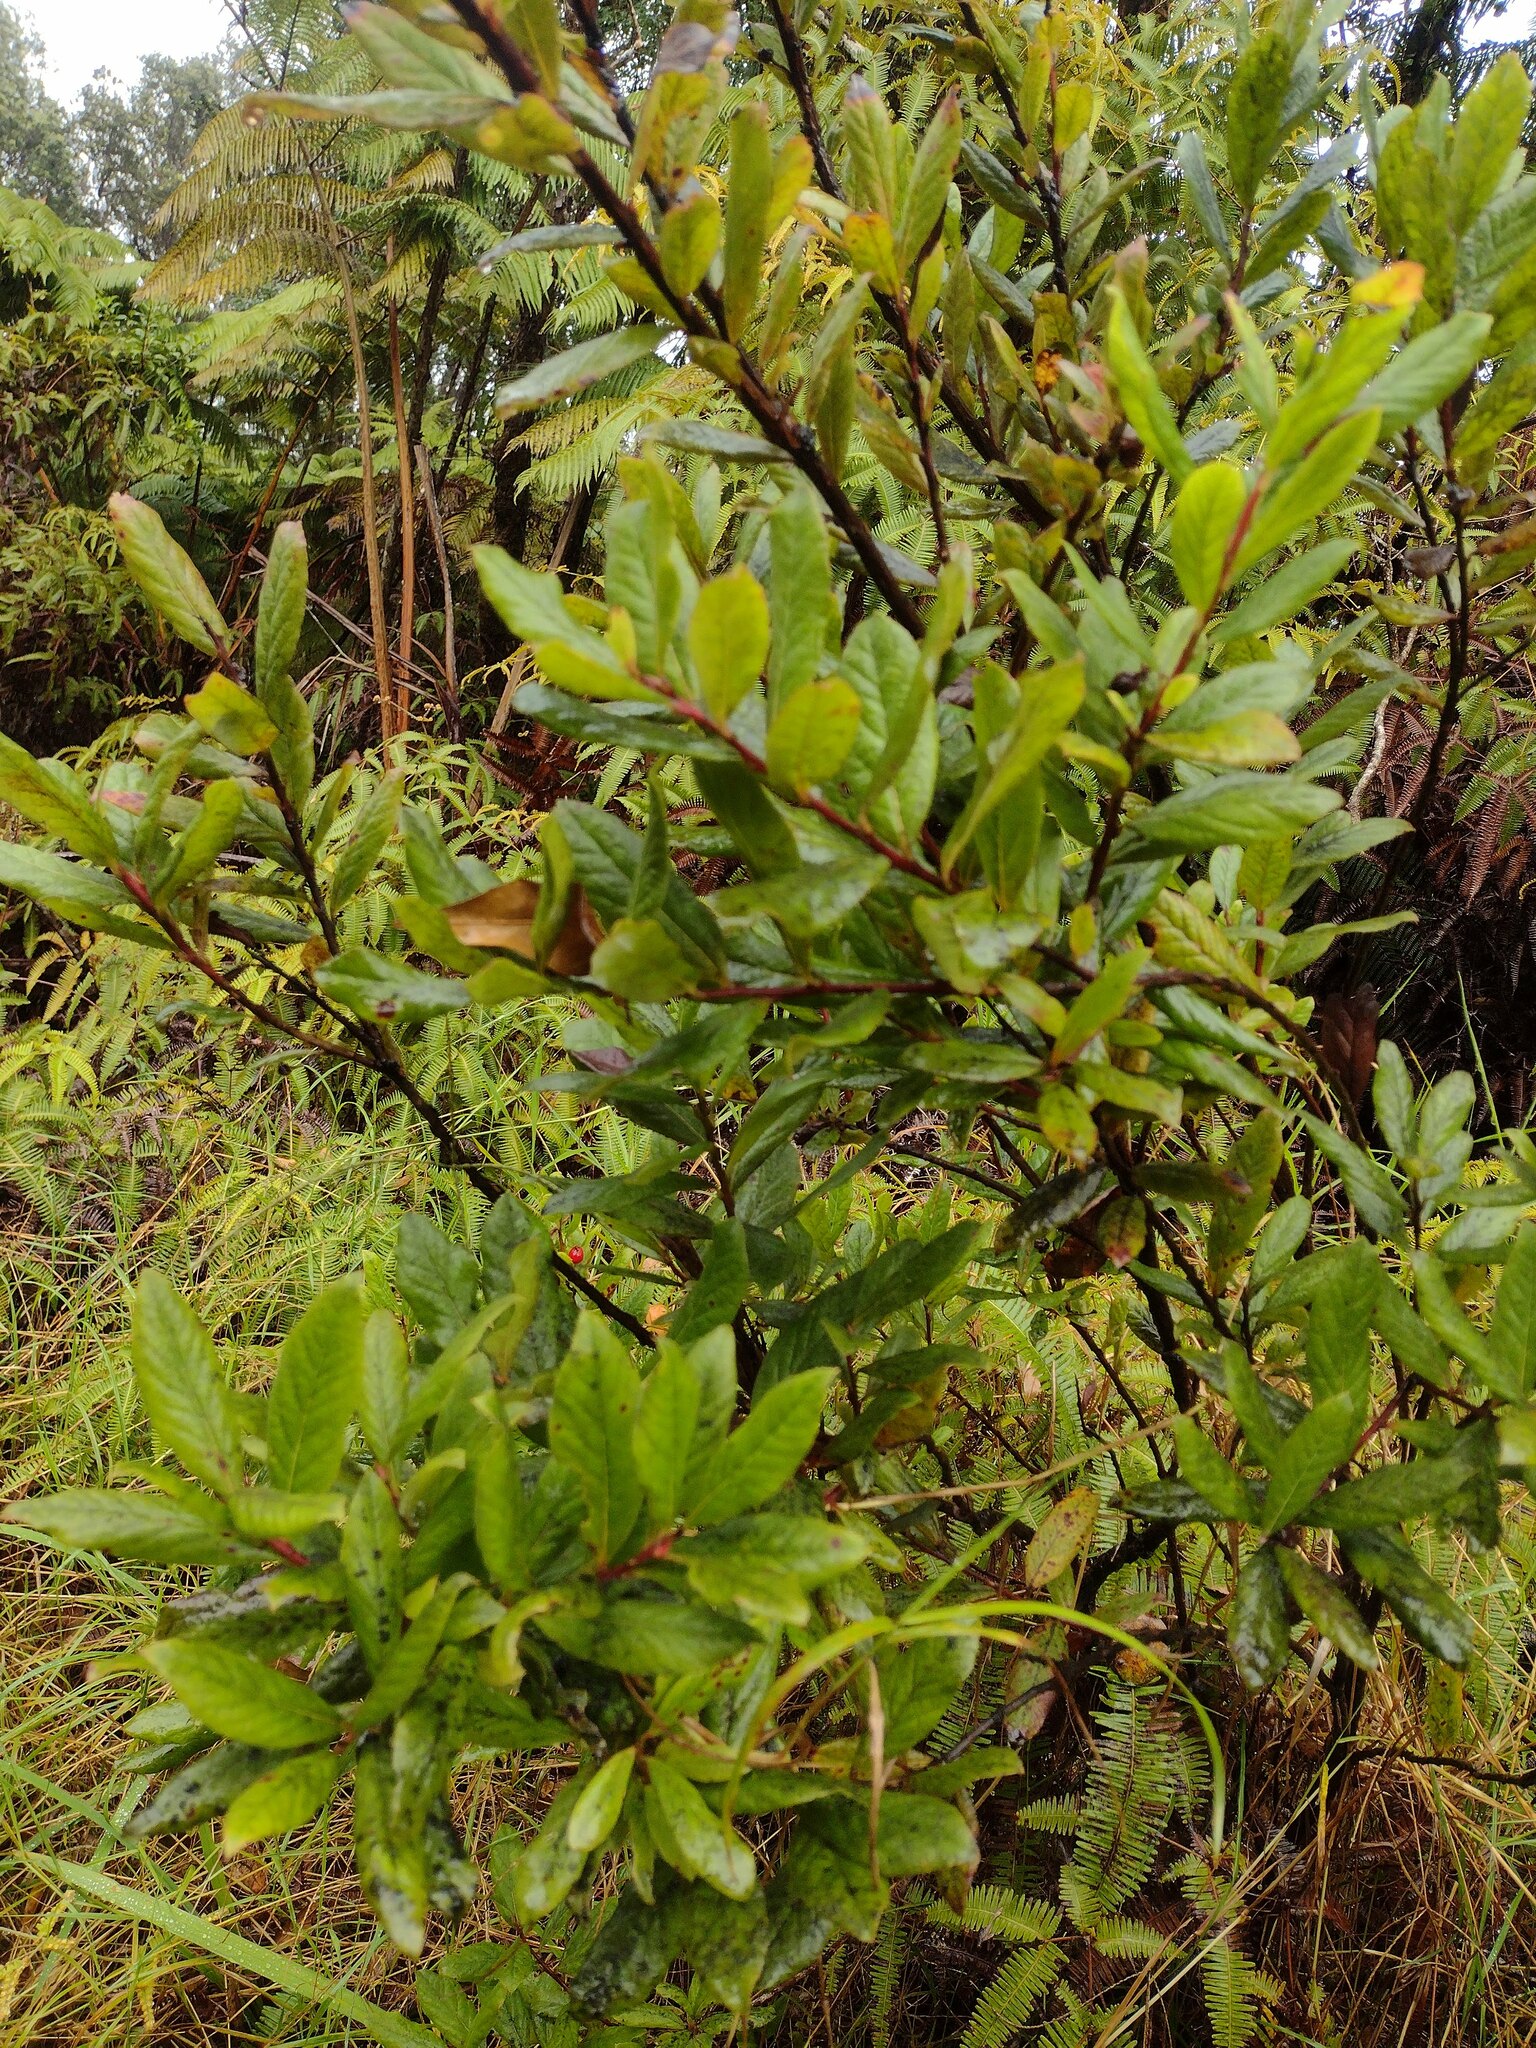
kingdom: Plantae
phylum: Tracheophyta
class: Magnoliopsida
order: Ericales
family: Ericaceae
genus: Vaccinium
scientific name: Vaccinium calycinum
